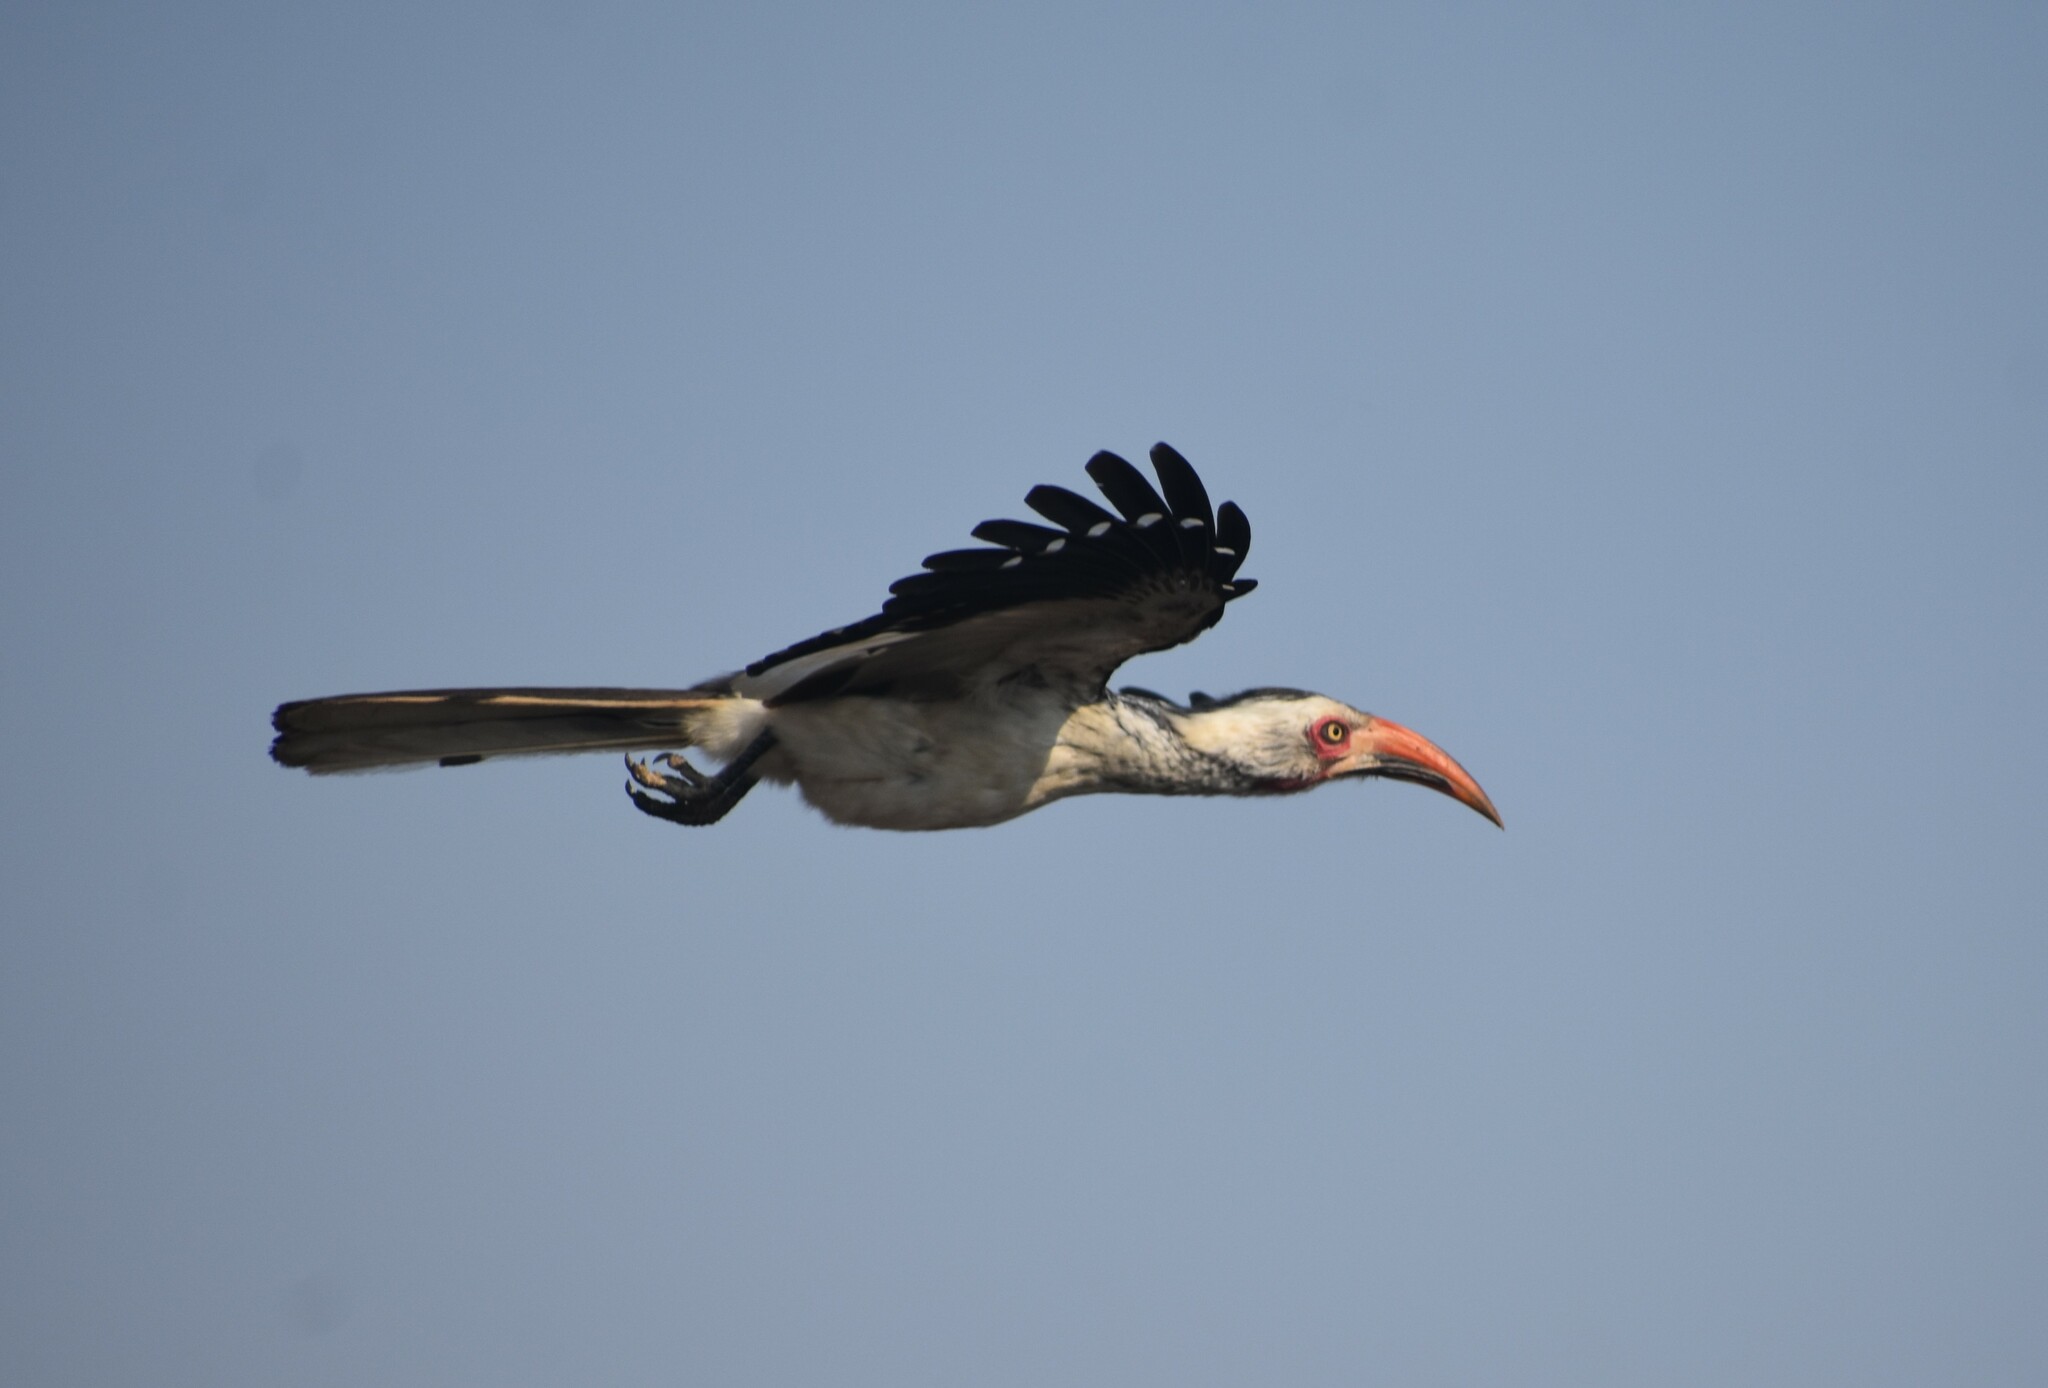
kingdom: Animalia
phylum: Chordata
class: Aves
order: Bucerotiformes
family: Bucerotidae
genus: Tockus
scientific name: Tockus rufirostris
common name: Southern red-billed hornbill
